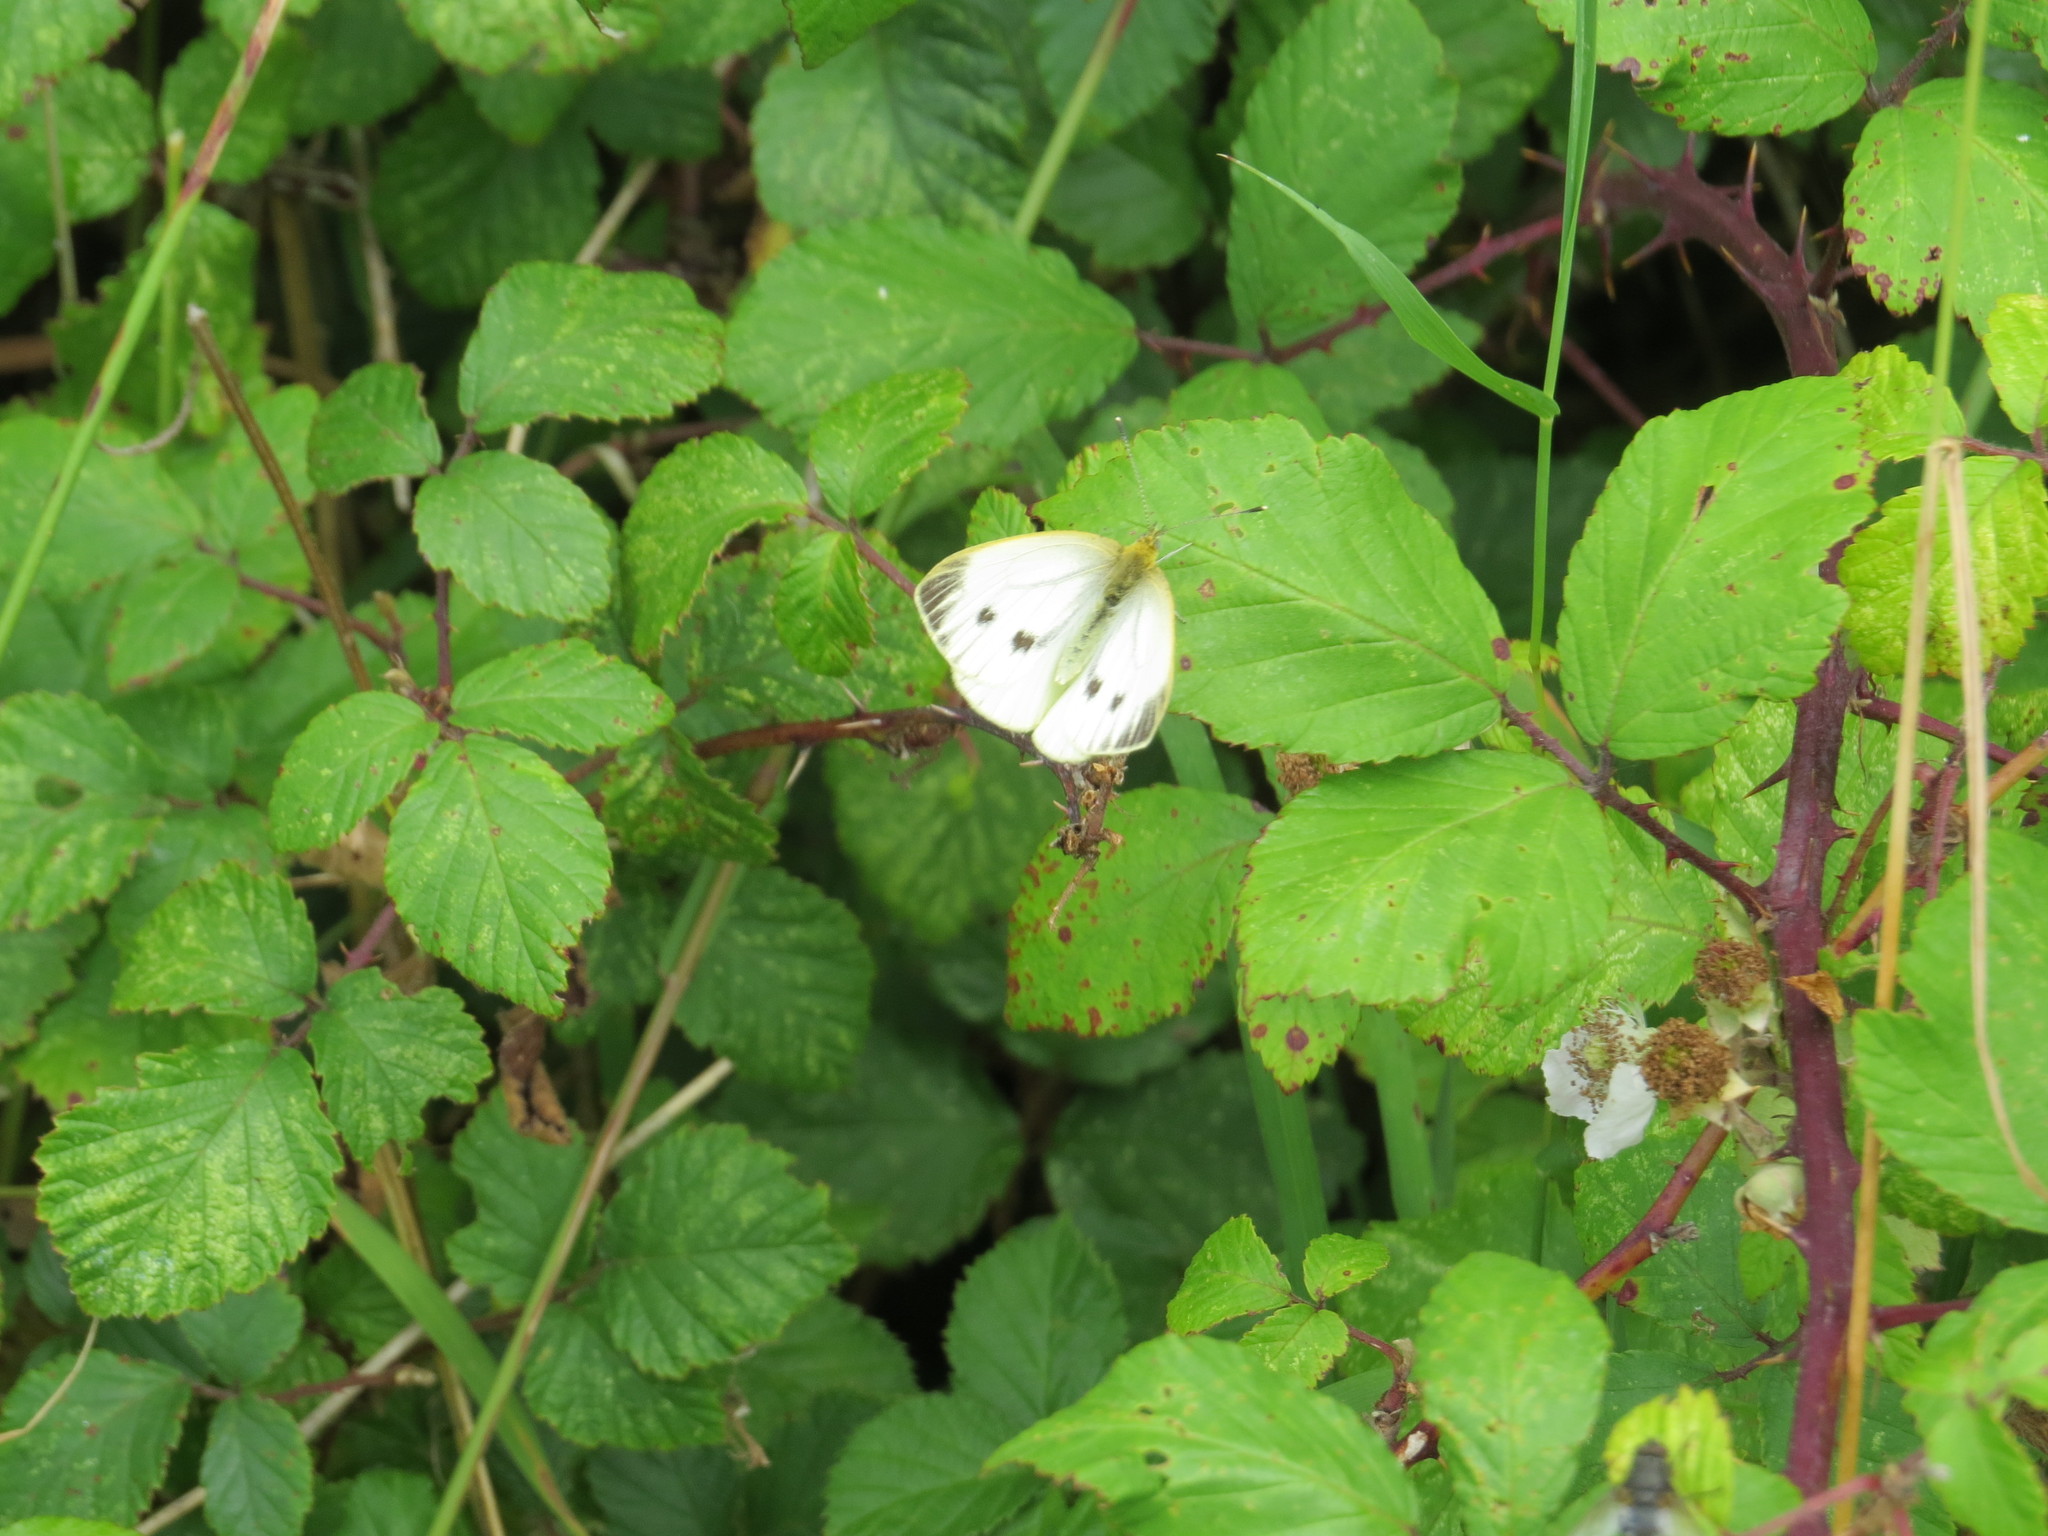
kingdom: Animalia
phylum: Arthropoda
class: Insecta
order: Lepidoptera
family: Pieridae
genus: Pieris
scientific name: Pieris napi
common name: Green-veined white
